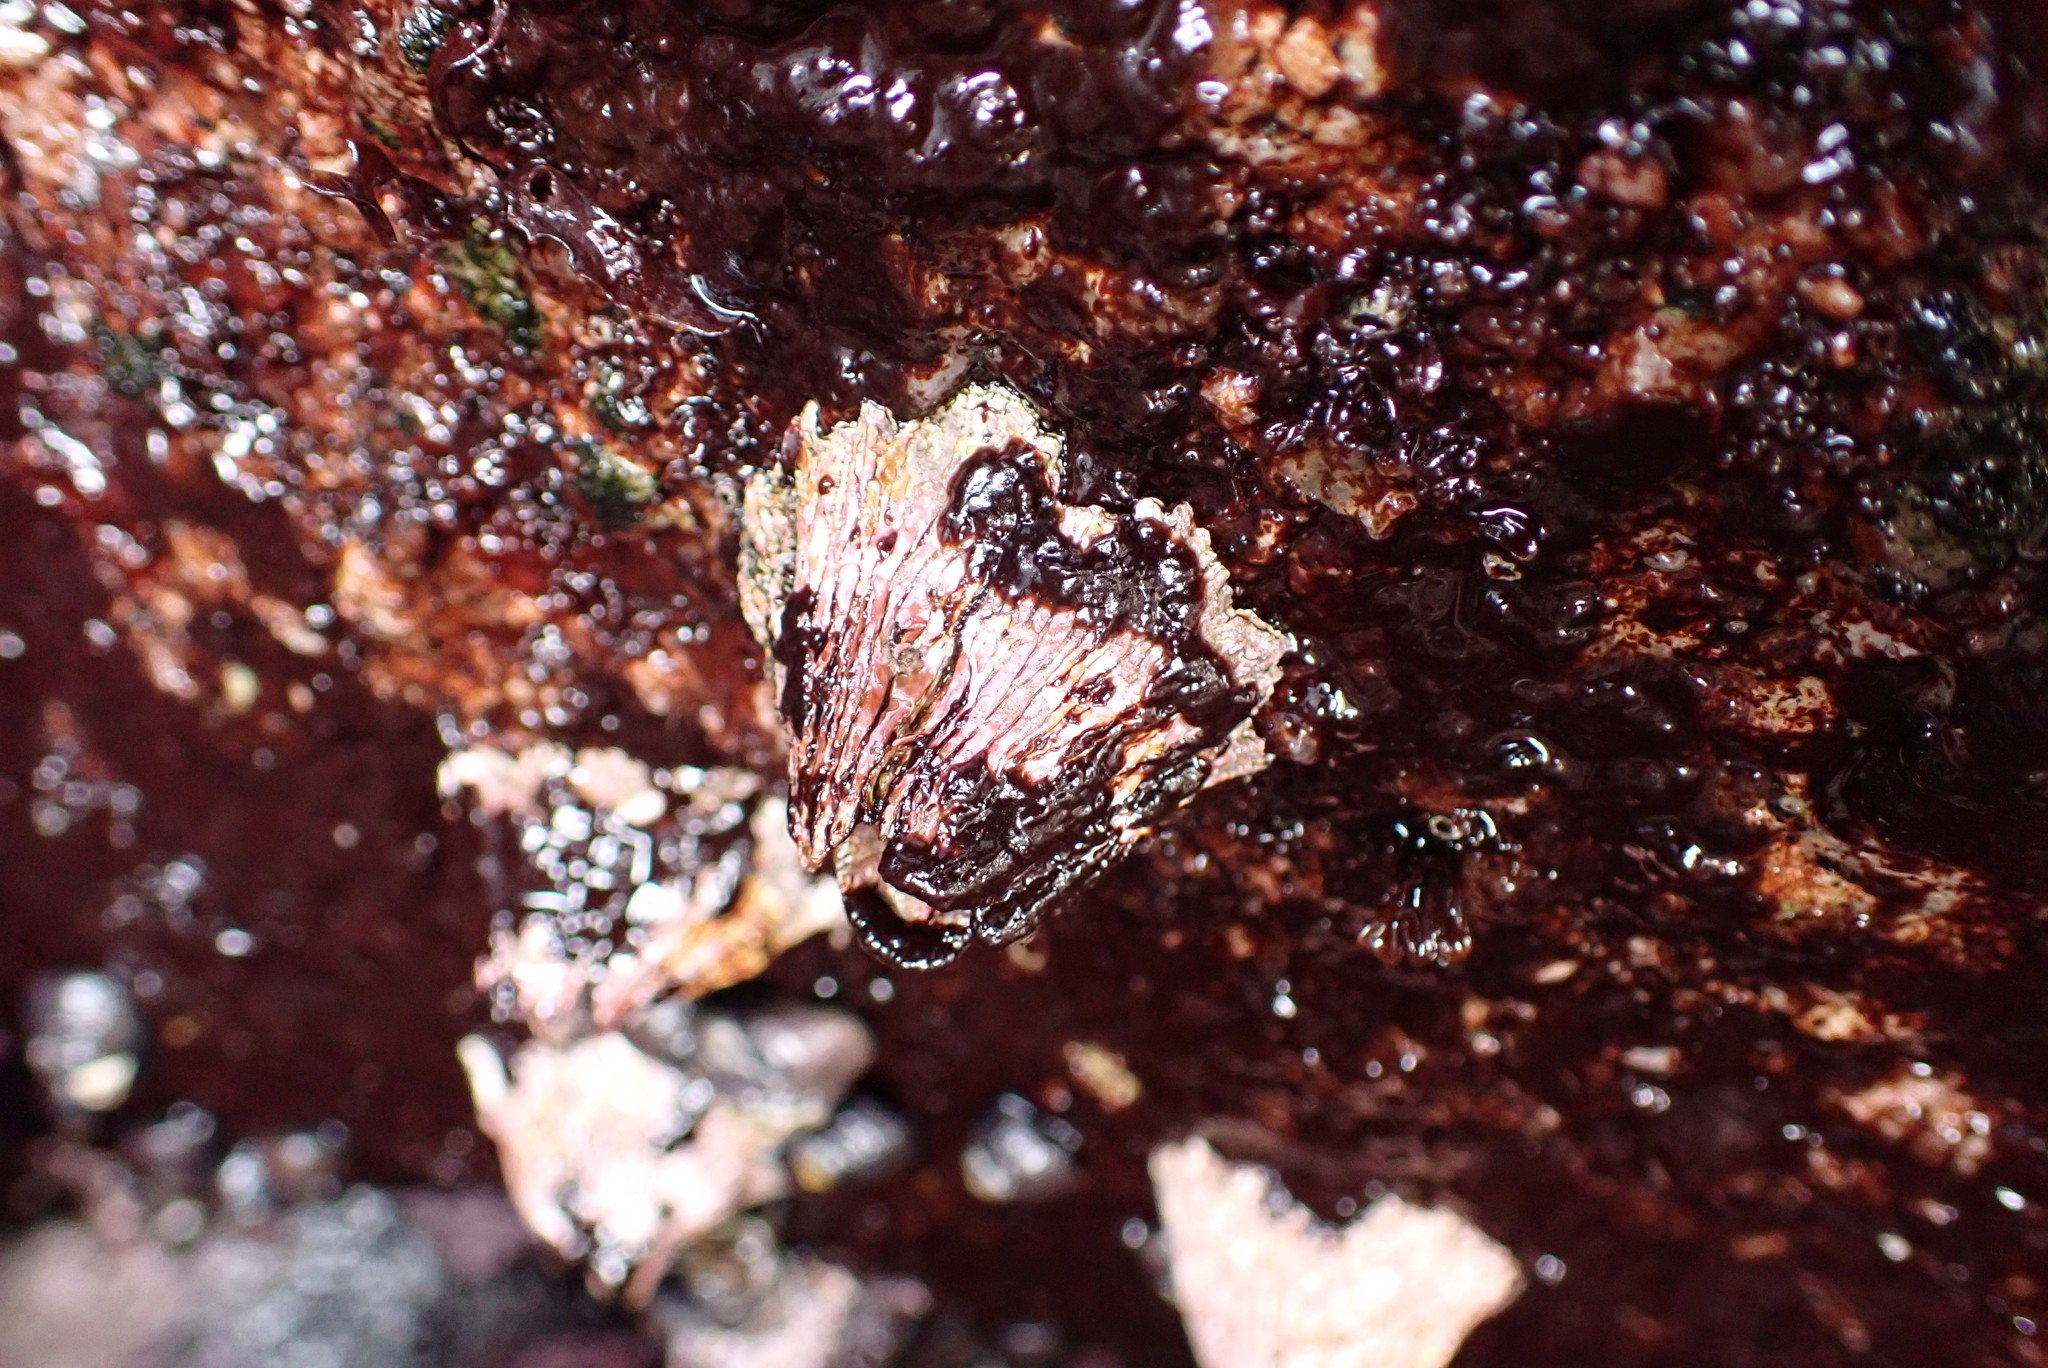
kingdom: Animalia
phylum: Arthropoda
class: Maxillopoda
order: Sessilia
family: Tetraclitidae
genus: Tetraclita
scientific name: Tetraclita rubescens
